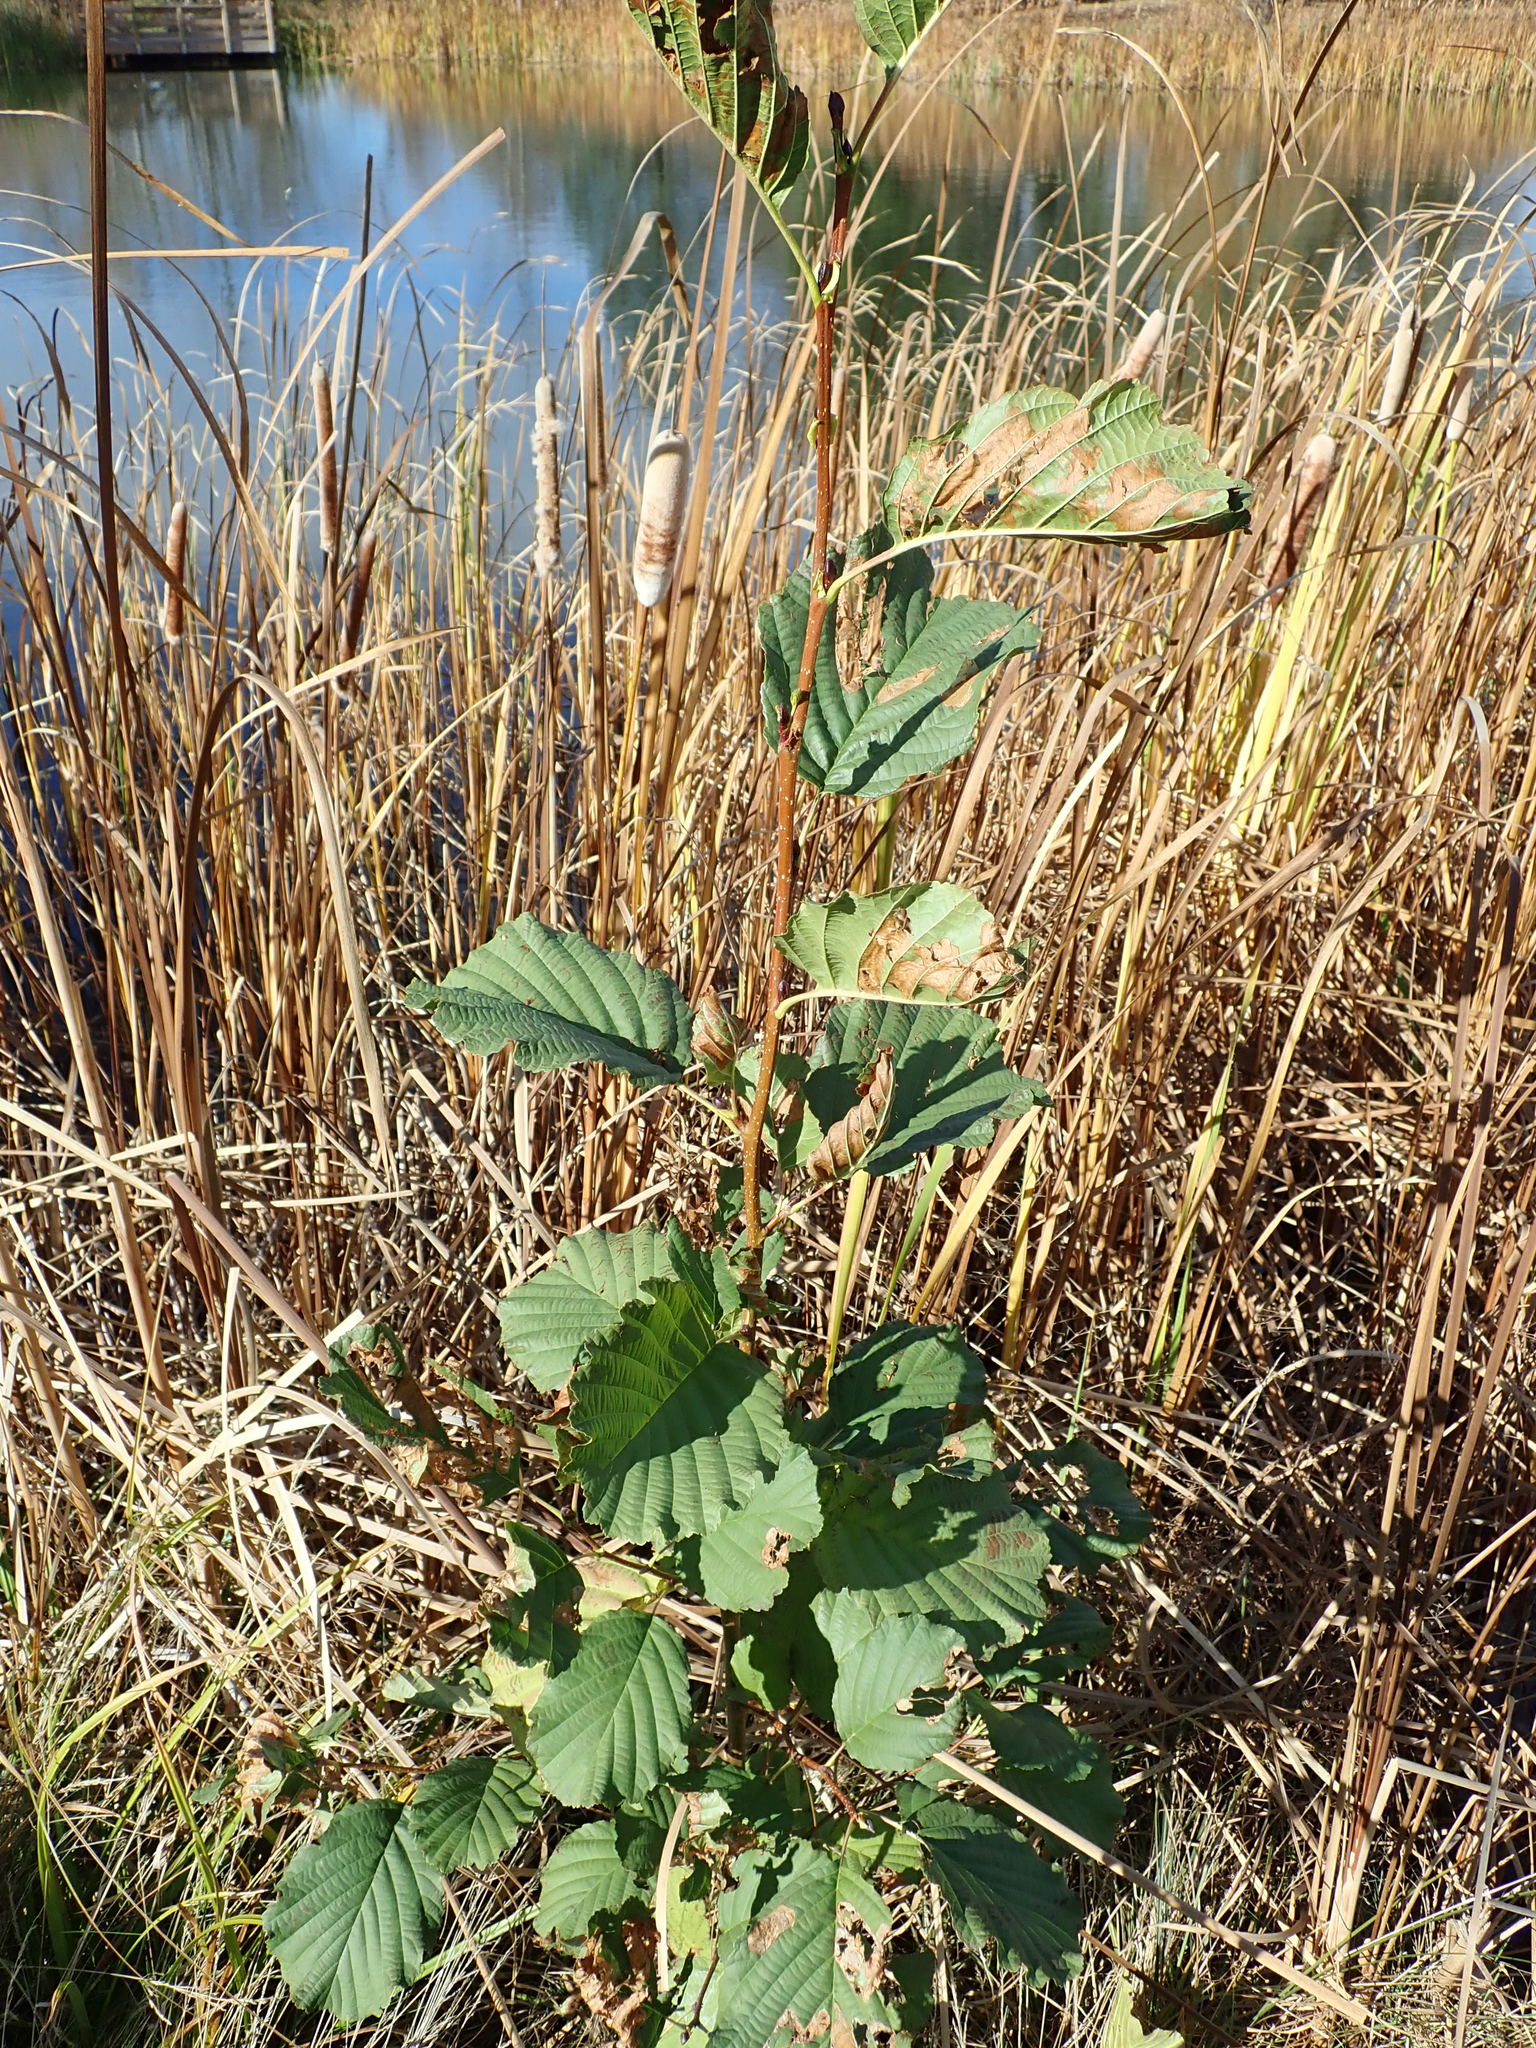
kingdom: Plantae
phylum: Tracheophyta
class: Magnoliopsida
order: Fagales
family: Betulaceae
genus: Alnus
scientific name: Alnus glutinosa
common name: Black alder
